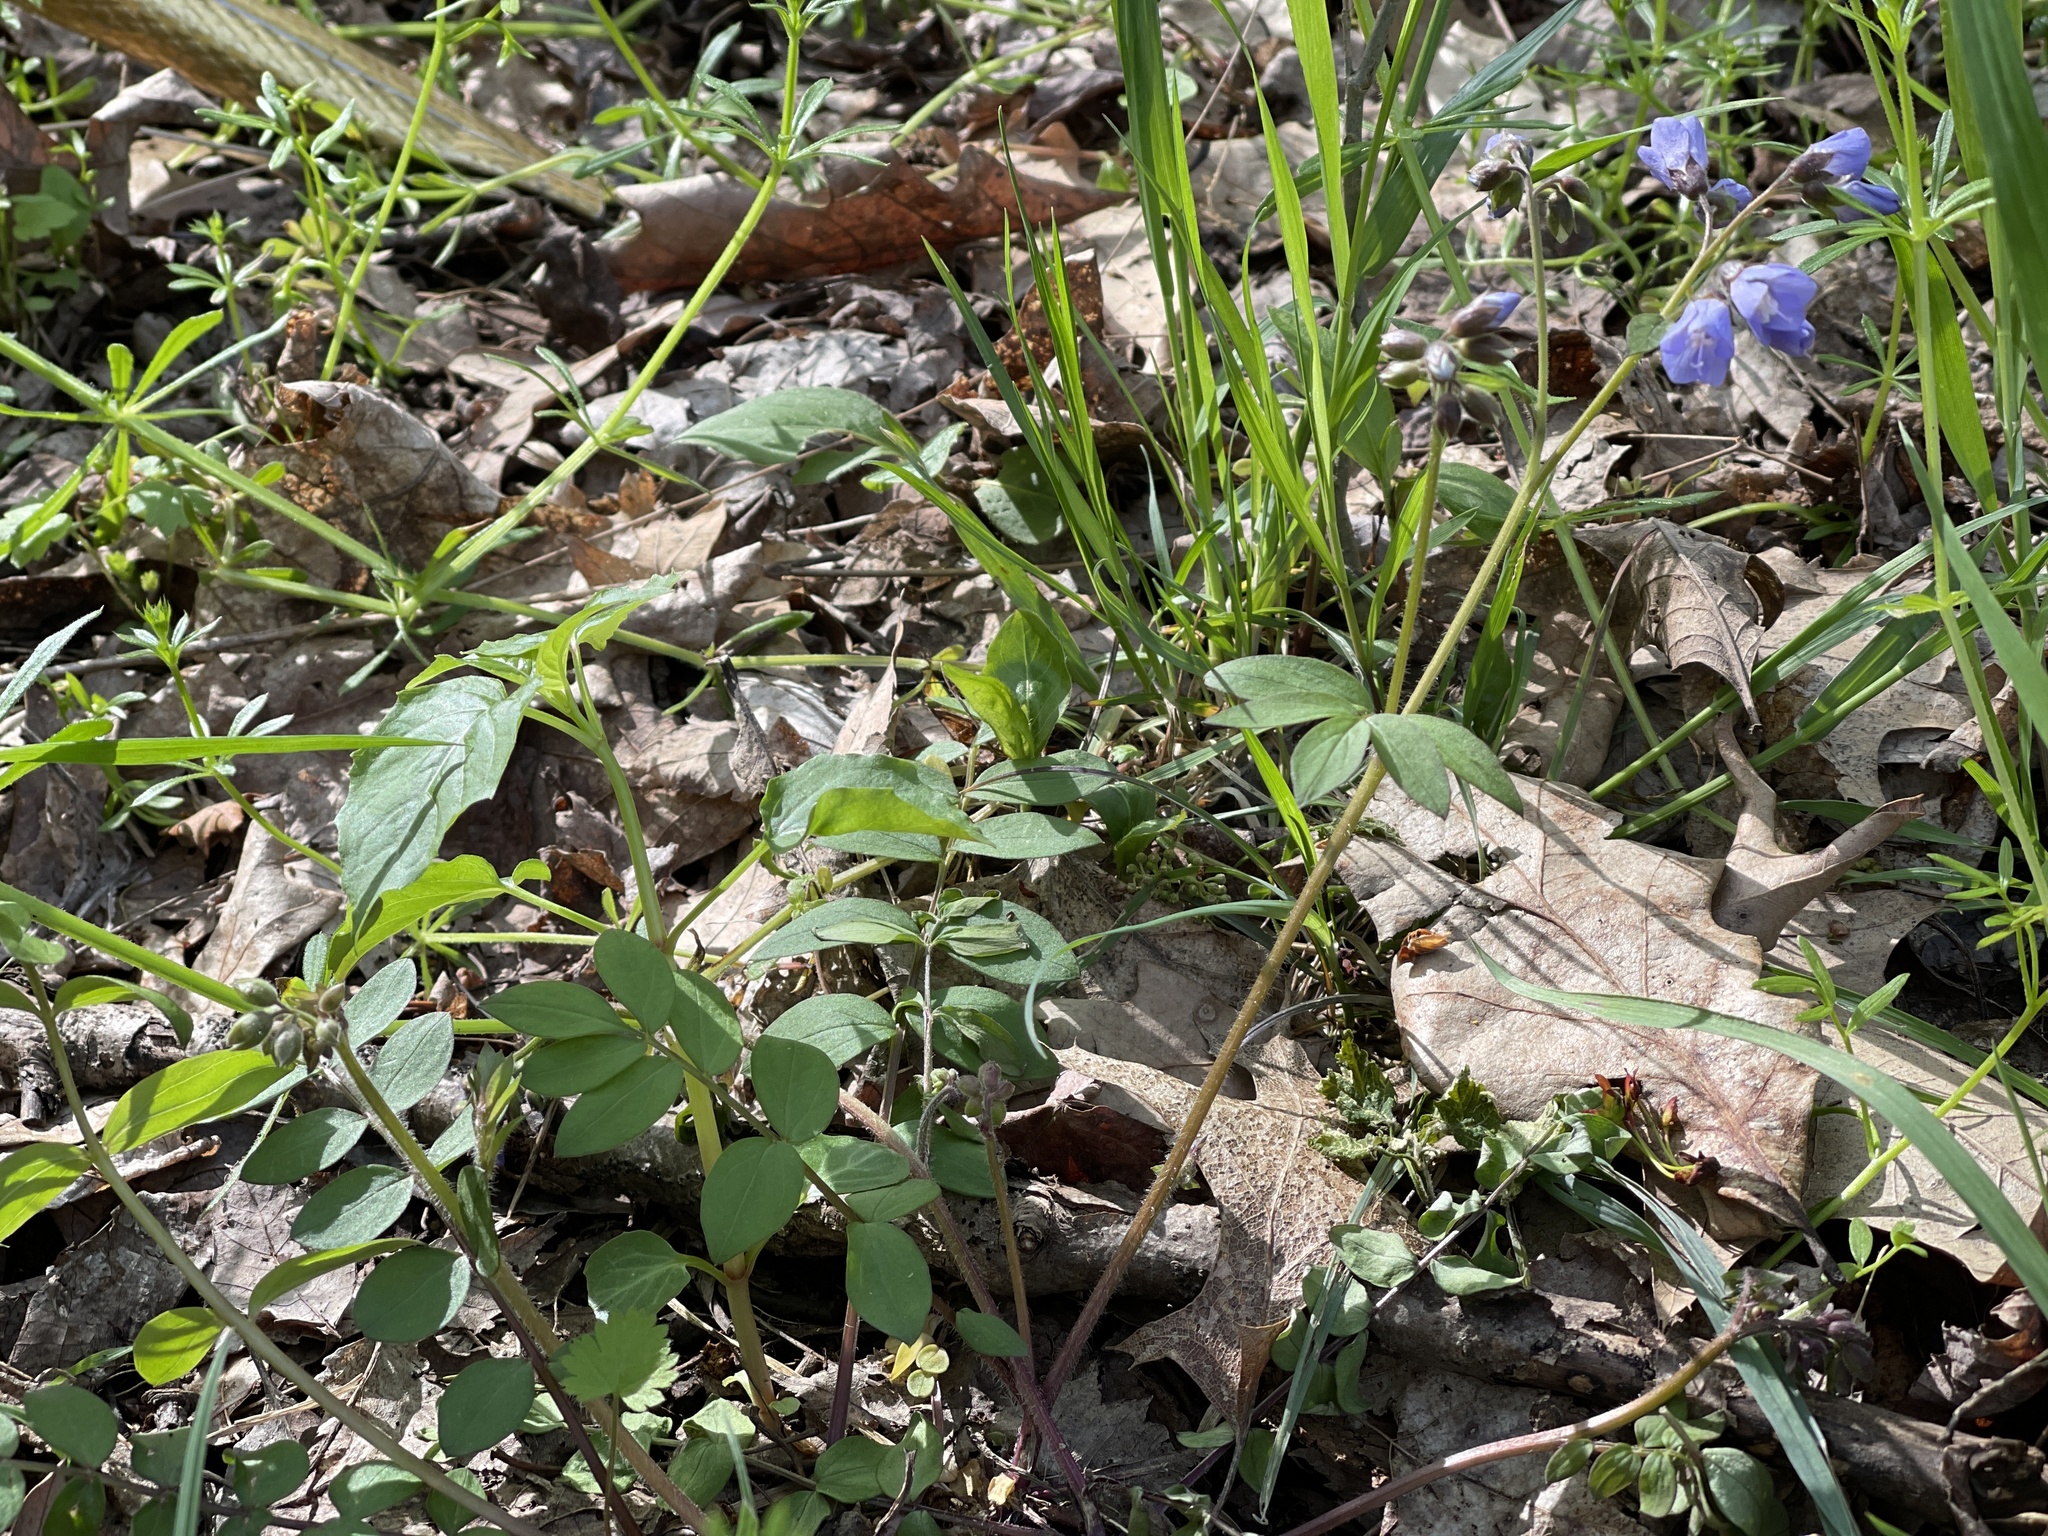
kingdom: Plantae
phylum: Tracheophyta
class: Magnoliopsida
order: Ericales
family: Polemoniaceae
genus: Polemonium
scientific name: Polemonium reptans
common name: Creeping jacob's-ladder
